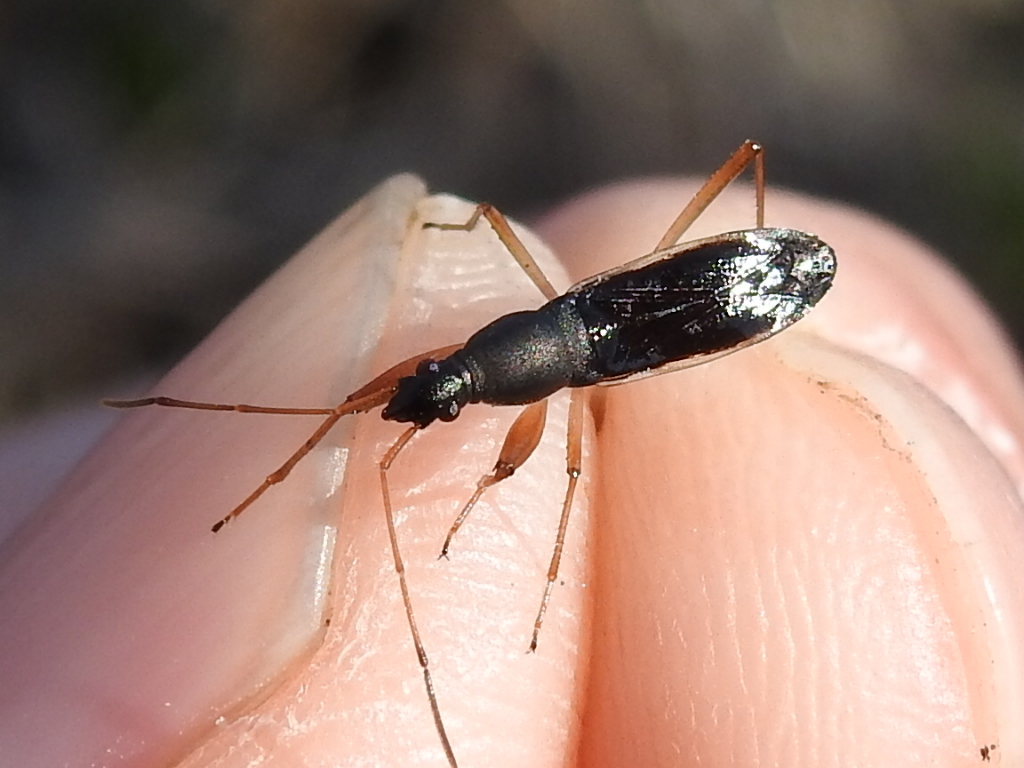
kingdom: Animalia
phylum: Arthropoda
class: Insecta
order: Hemiptera
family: Rhyparochromidae
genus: Cnemodus
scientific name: Cnemodus mavortius
